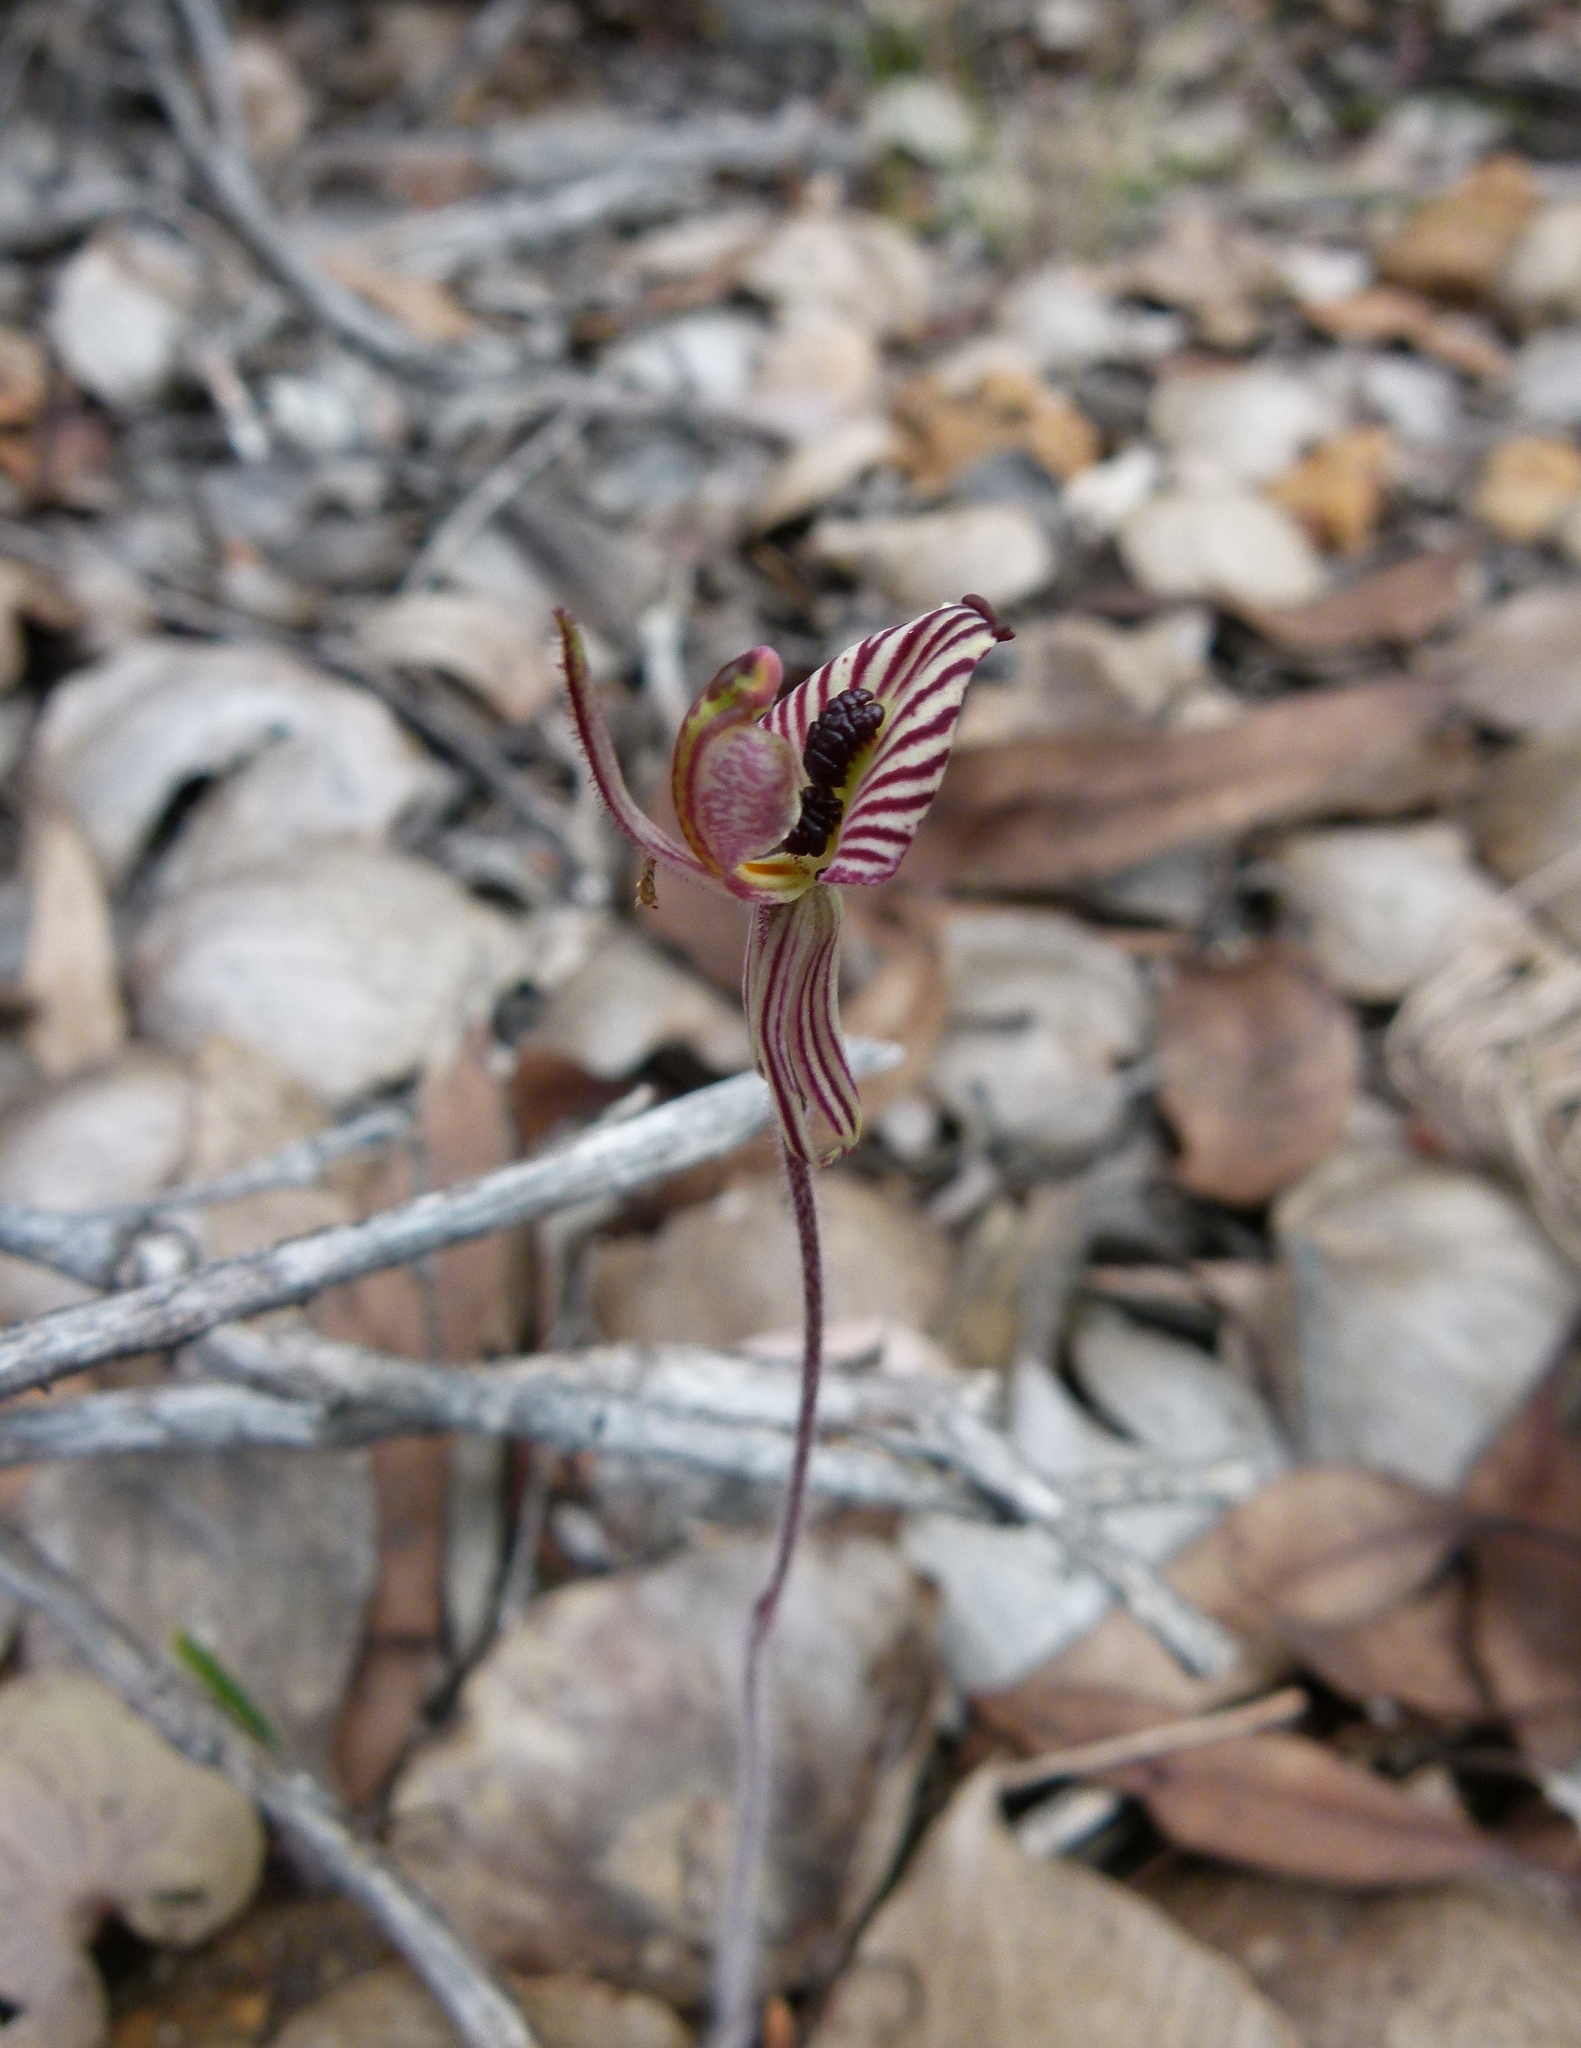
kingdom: Plantae
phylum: Tracheophyta
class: Liliopsida
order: Asparagales
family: Orchidaceae
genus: Caladenia
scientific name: Caladenia cairnsiana
